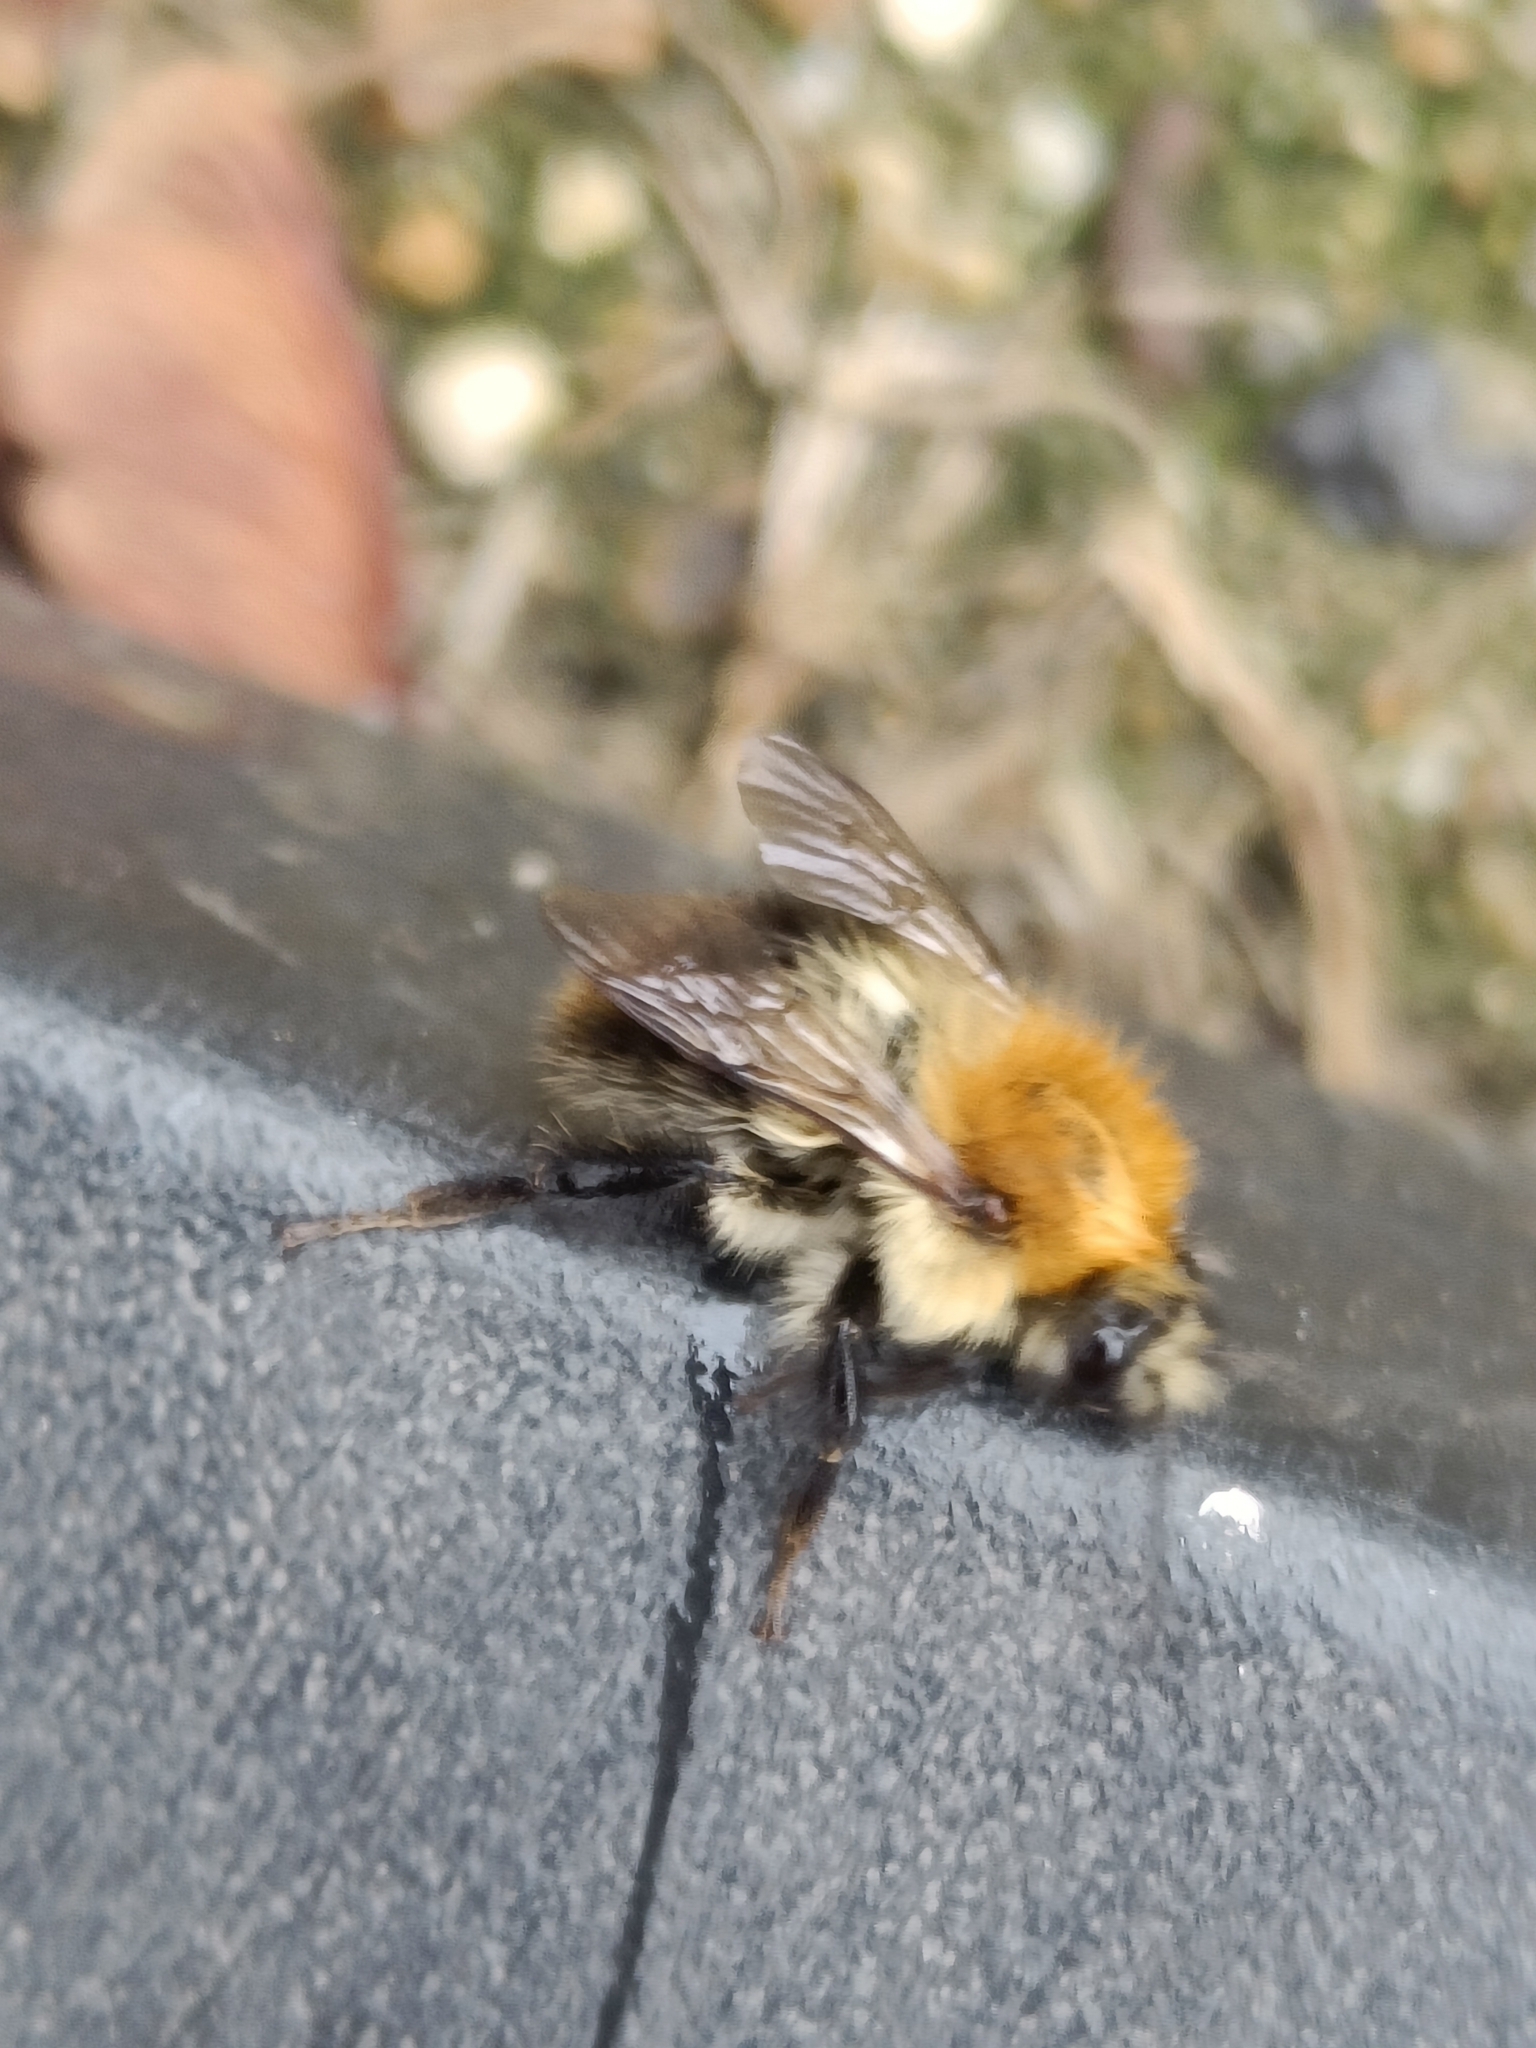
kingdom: Animalia
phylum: Arthropoda
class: Insecta
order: Hymenoptera
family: Apidae
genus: Bombus
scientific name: Bombus pascuorum
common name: Common carder bee
